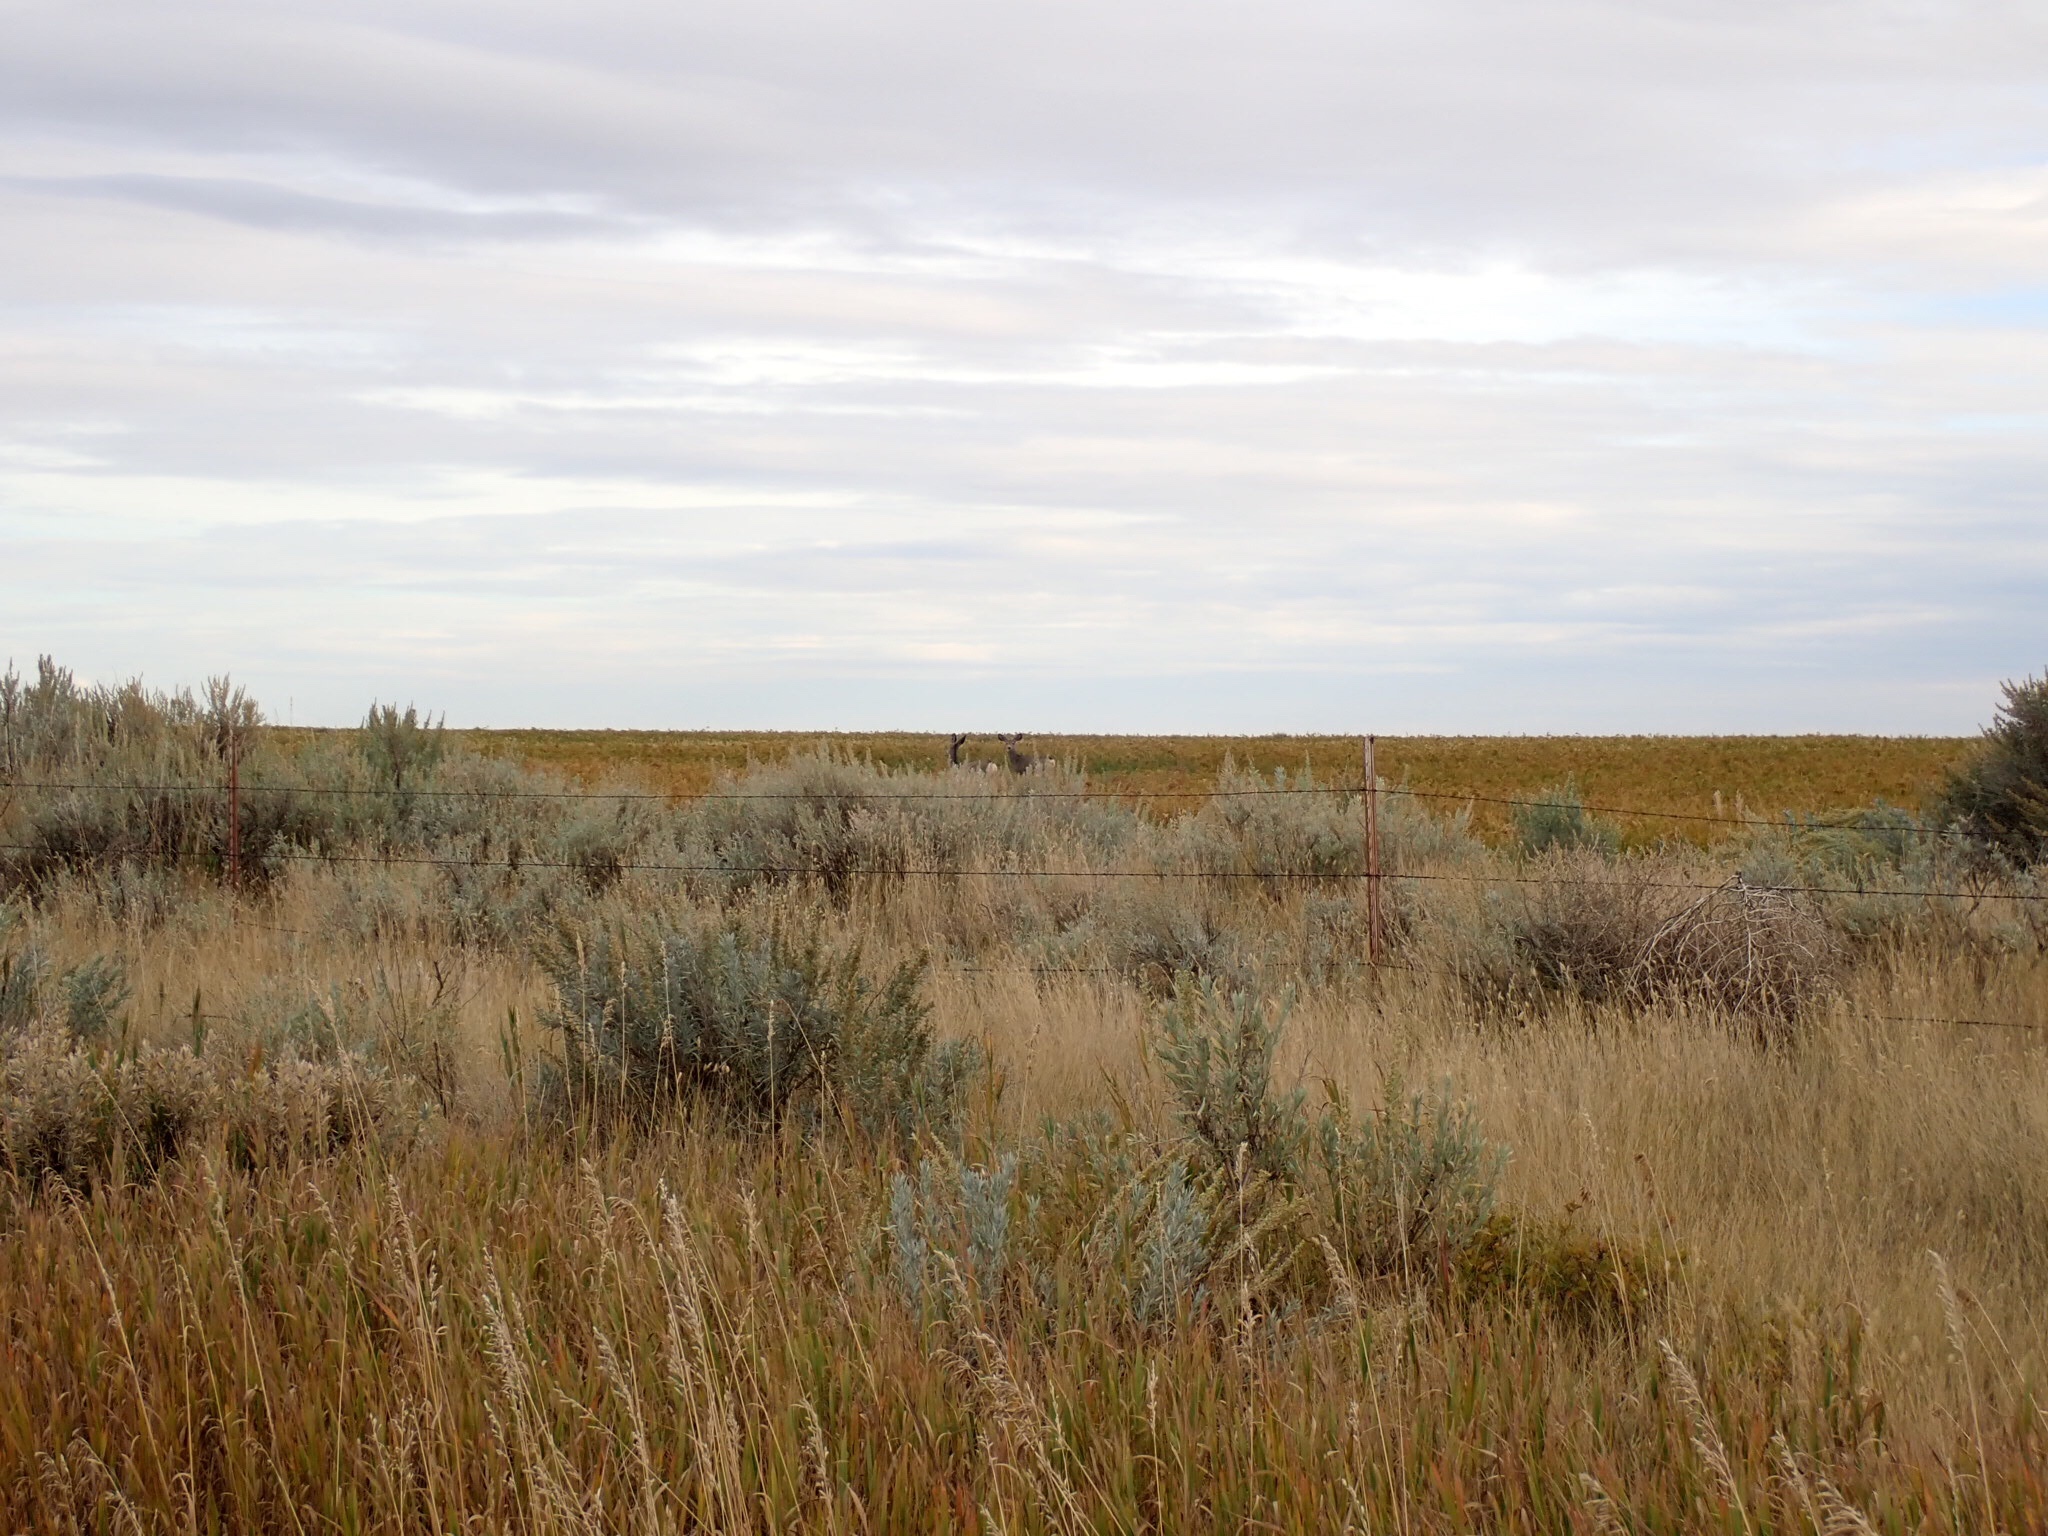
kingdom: Animalia
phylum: Chordata
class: Mammalia
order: Artiodactyla
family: Cervidae
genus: Odocoileus
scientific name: Odocoileus hemionus
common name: Mule deer
